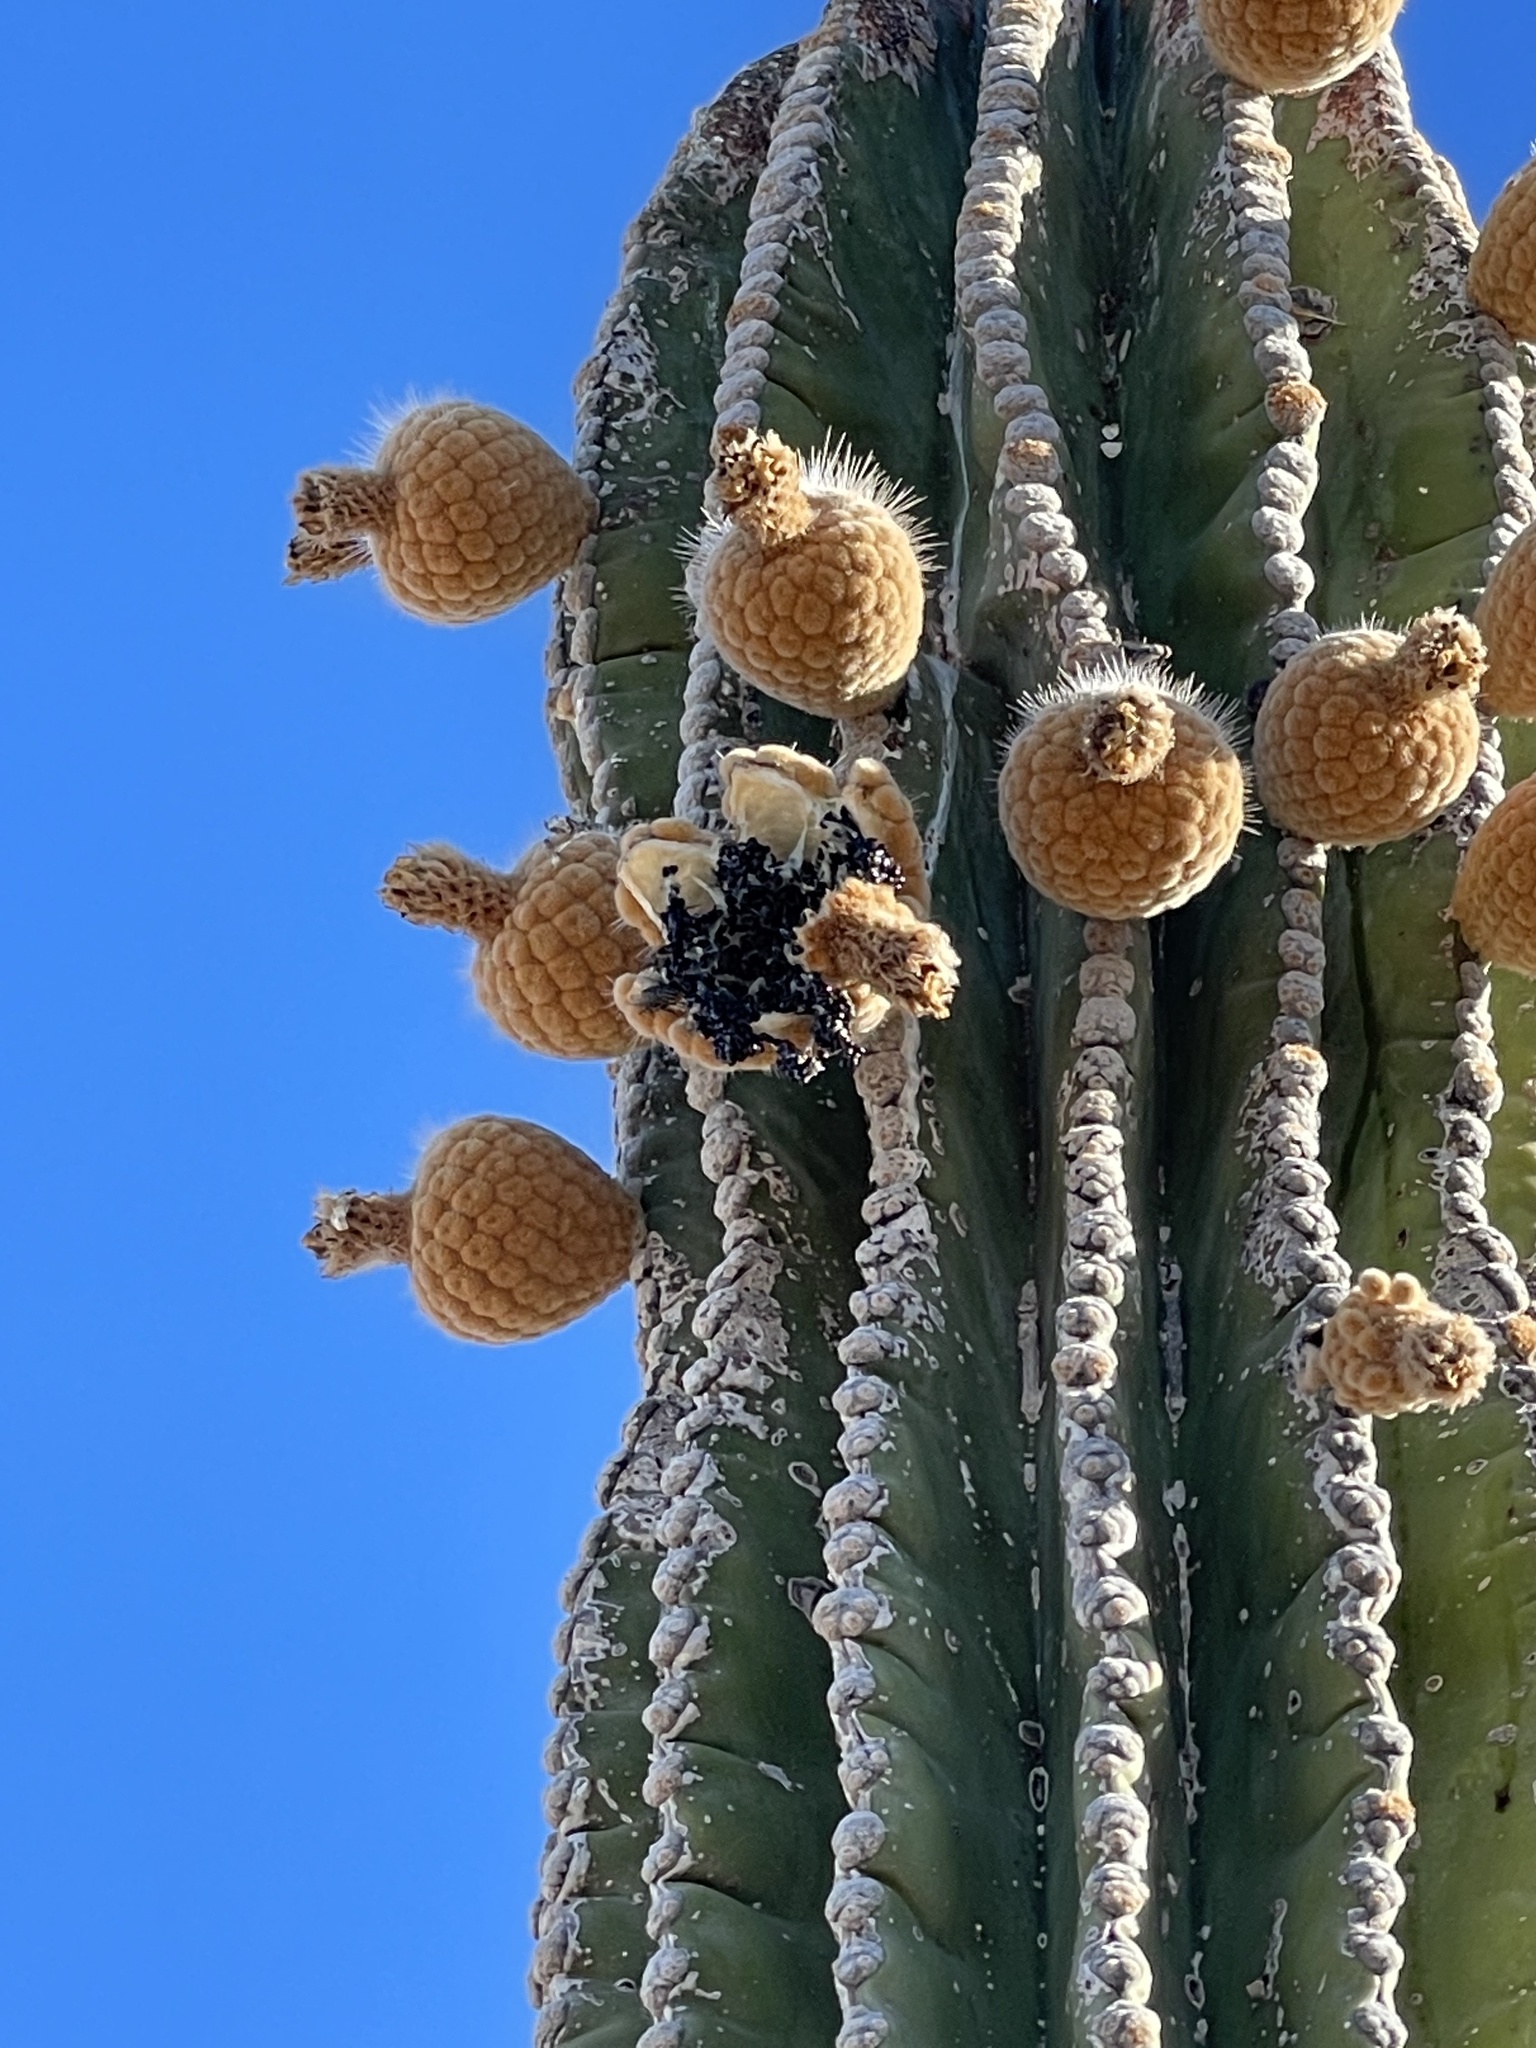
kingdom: Plantae
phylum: Tracheophyta
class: Magnoliopsida
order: Caryophyllales
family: Cactaceae
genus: Pachycereus
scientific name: Pachycereus pringlei
